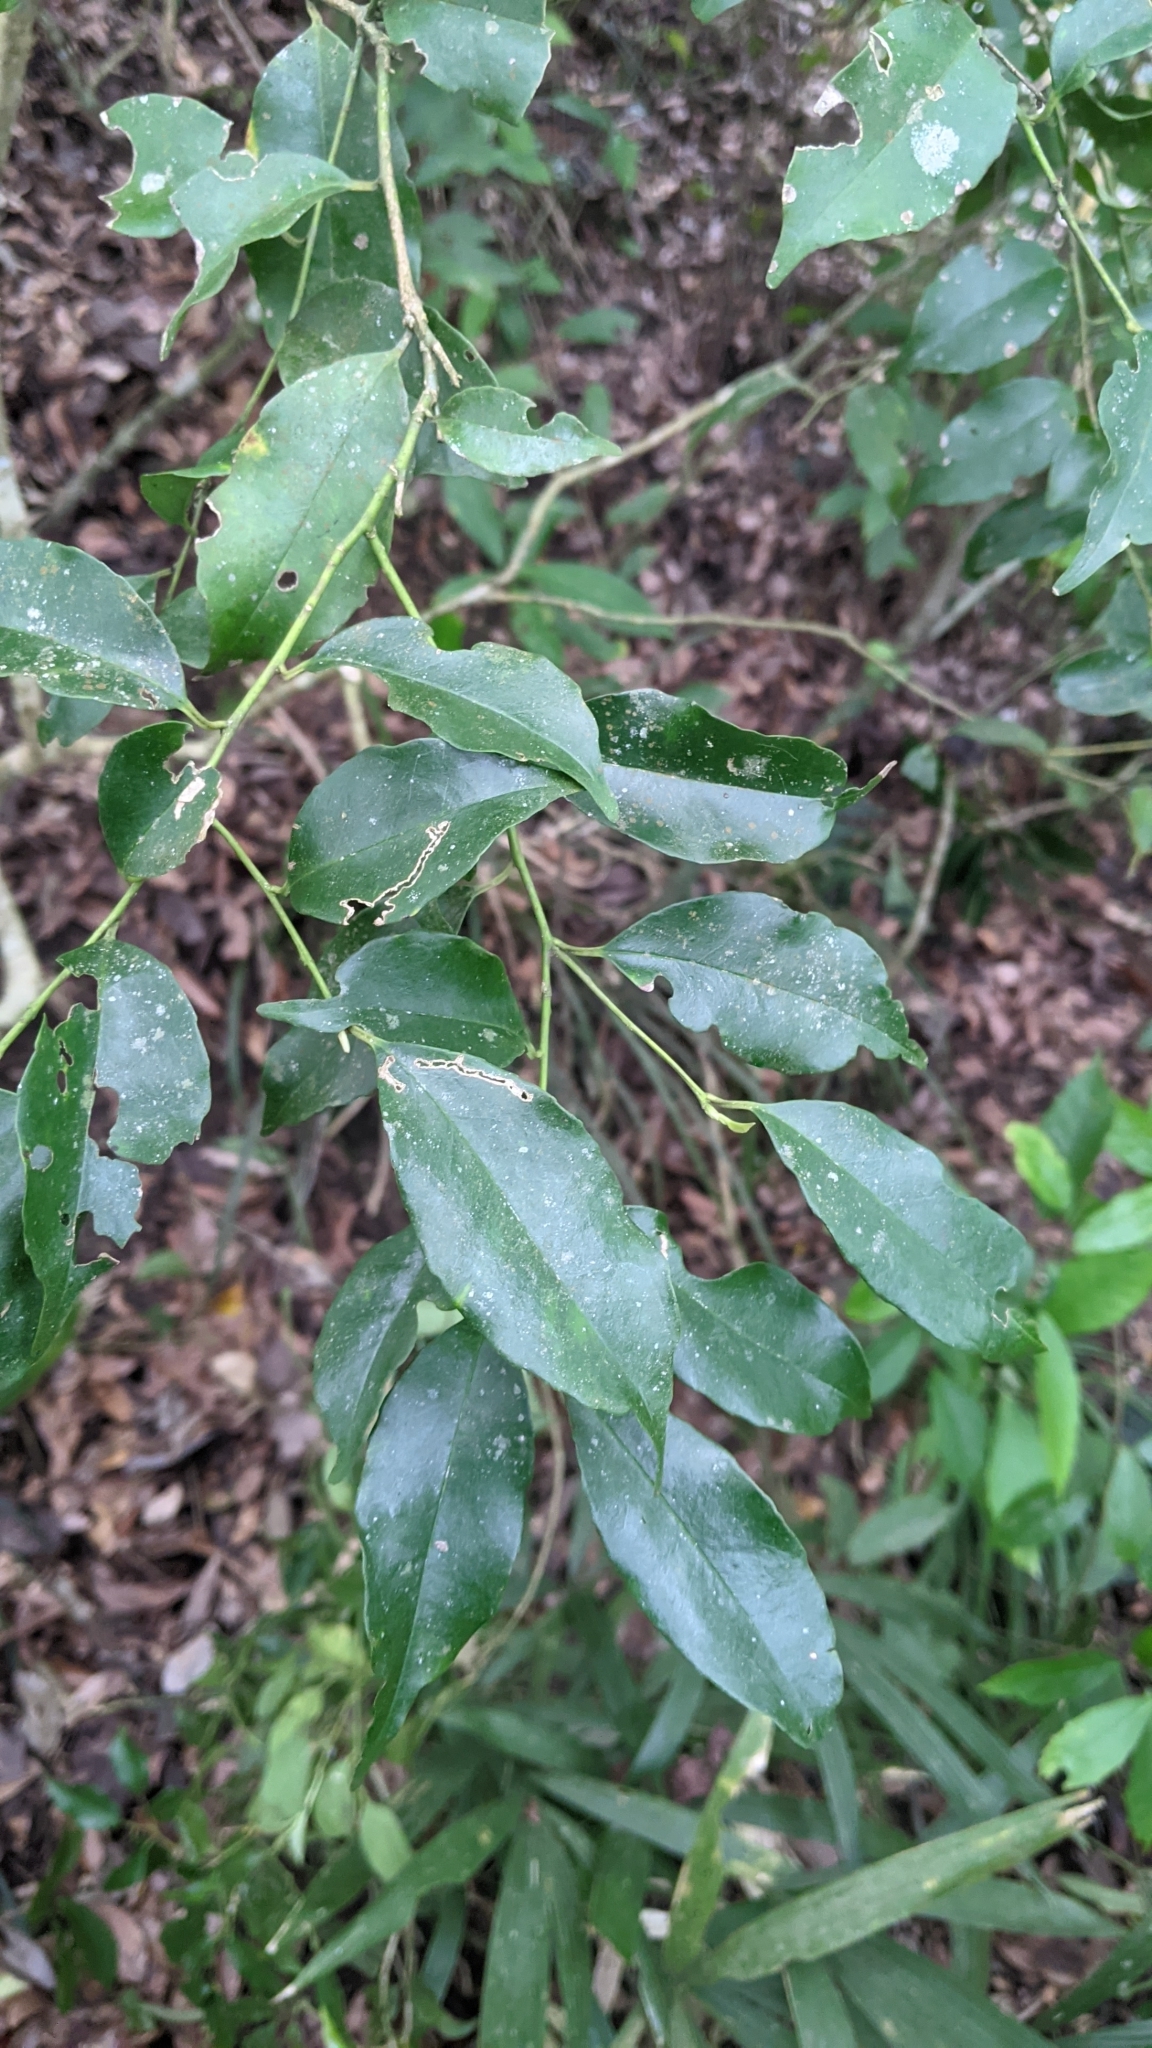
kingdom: Plantae
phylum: Tracheophyta
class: Magnoliopsida
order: Aquifoliales
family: Aquifoliaceae
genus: Ilex
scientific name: Ilex ficoidea
